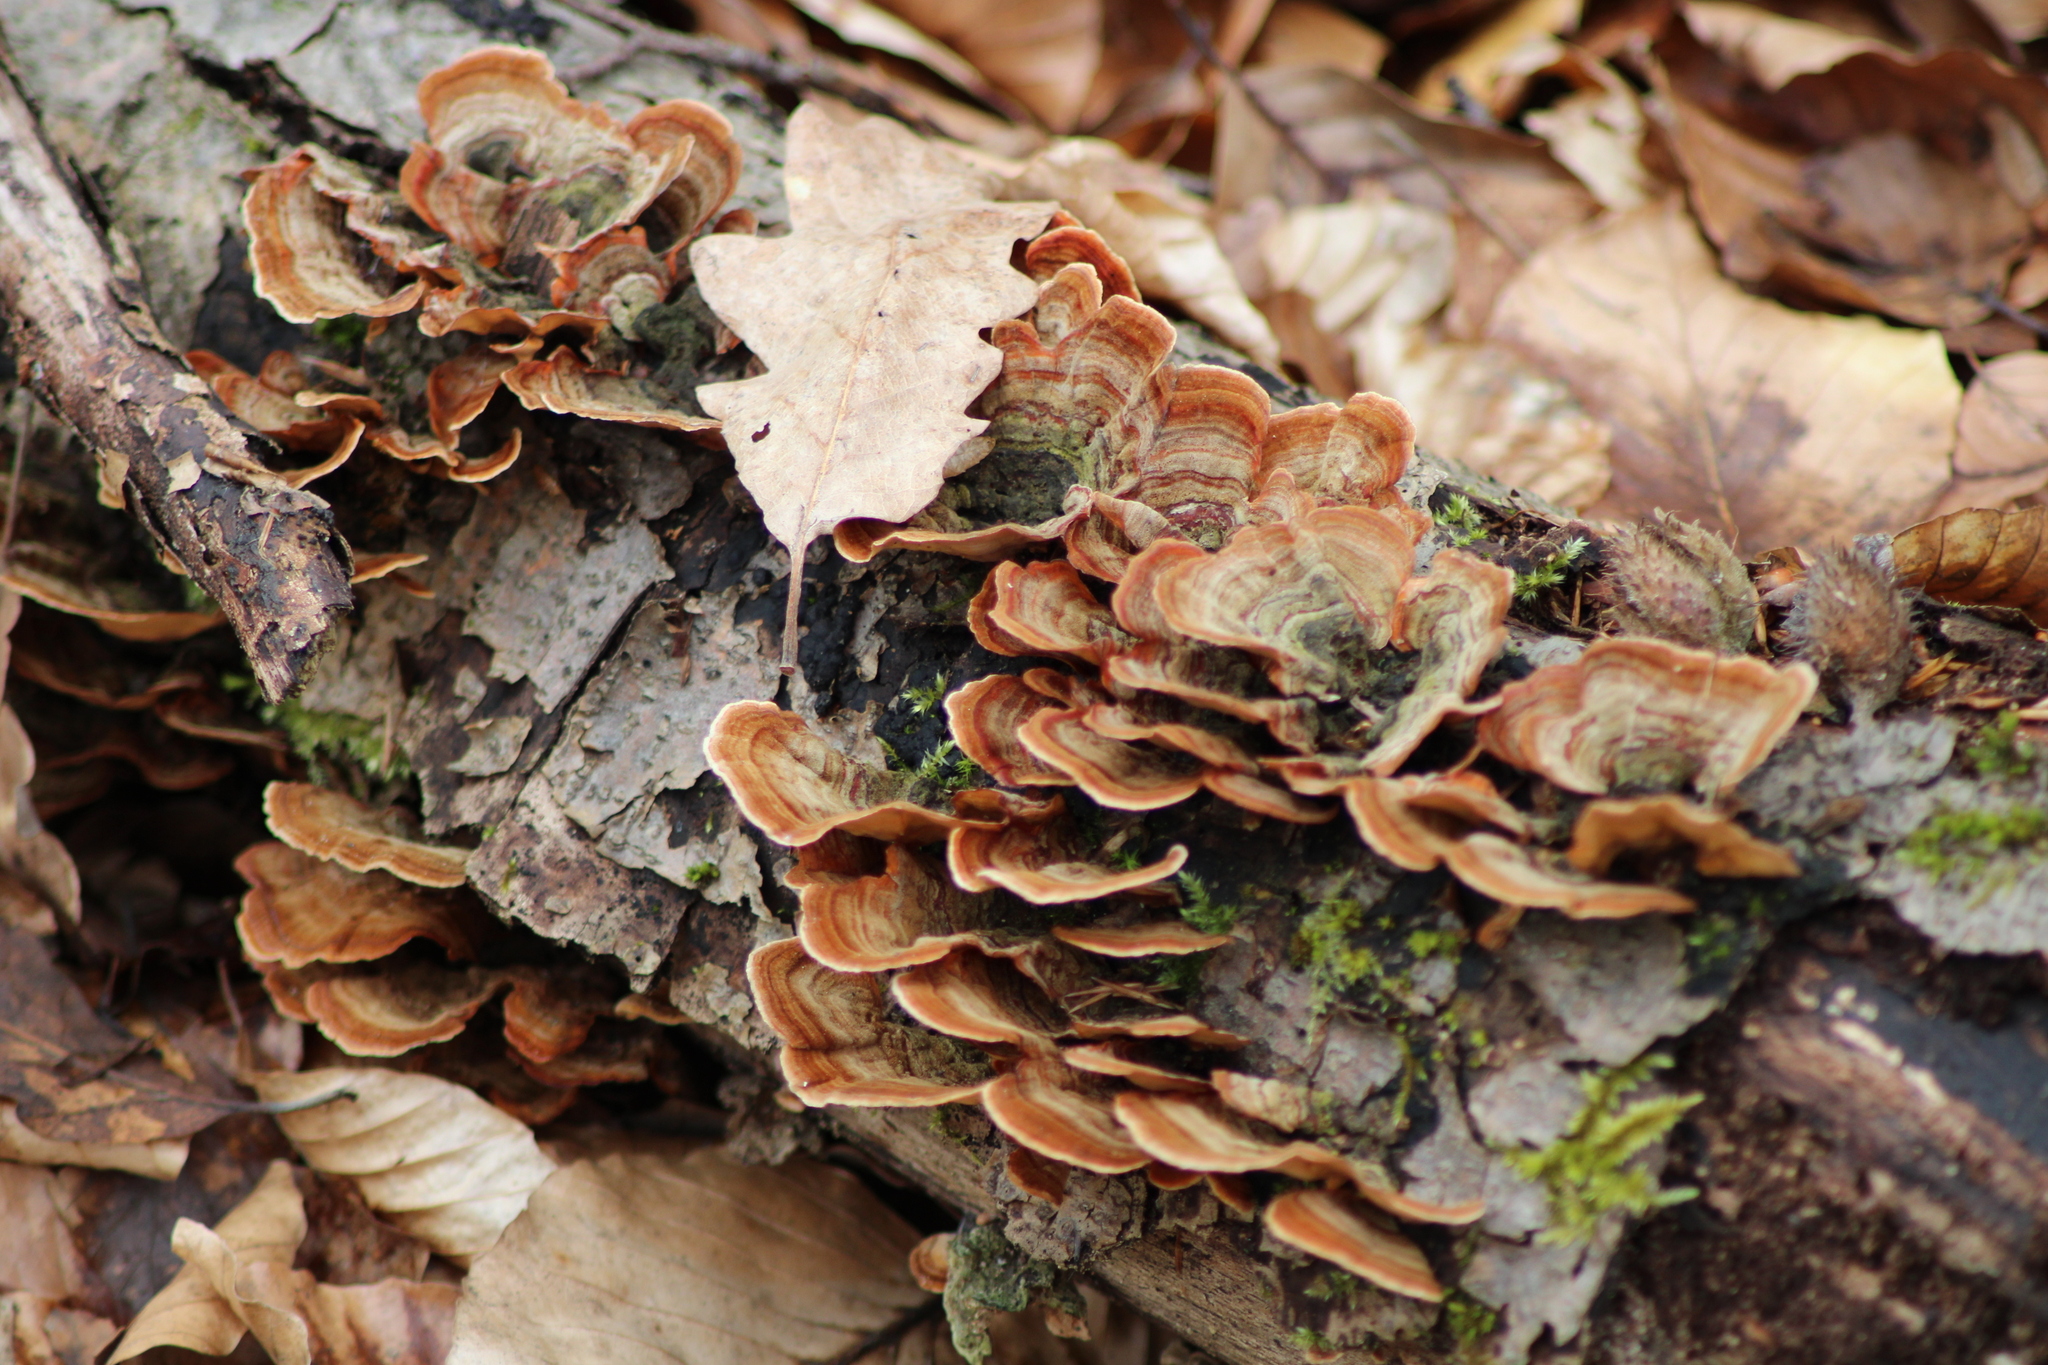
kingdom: Fungi
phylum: Basidiomycota
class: Agaricomycetes
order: Russulales
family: Stereaceae
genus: Stereum
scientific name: Stereum subtomentosum
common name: Yellowing curtain crust
